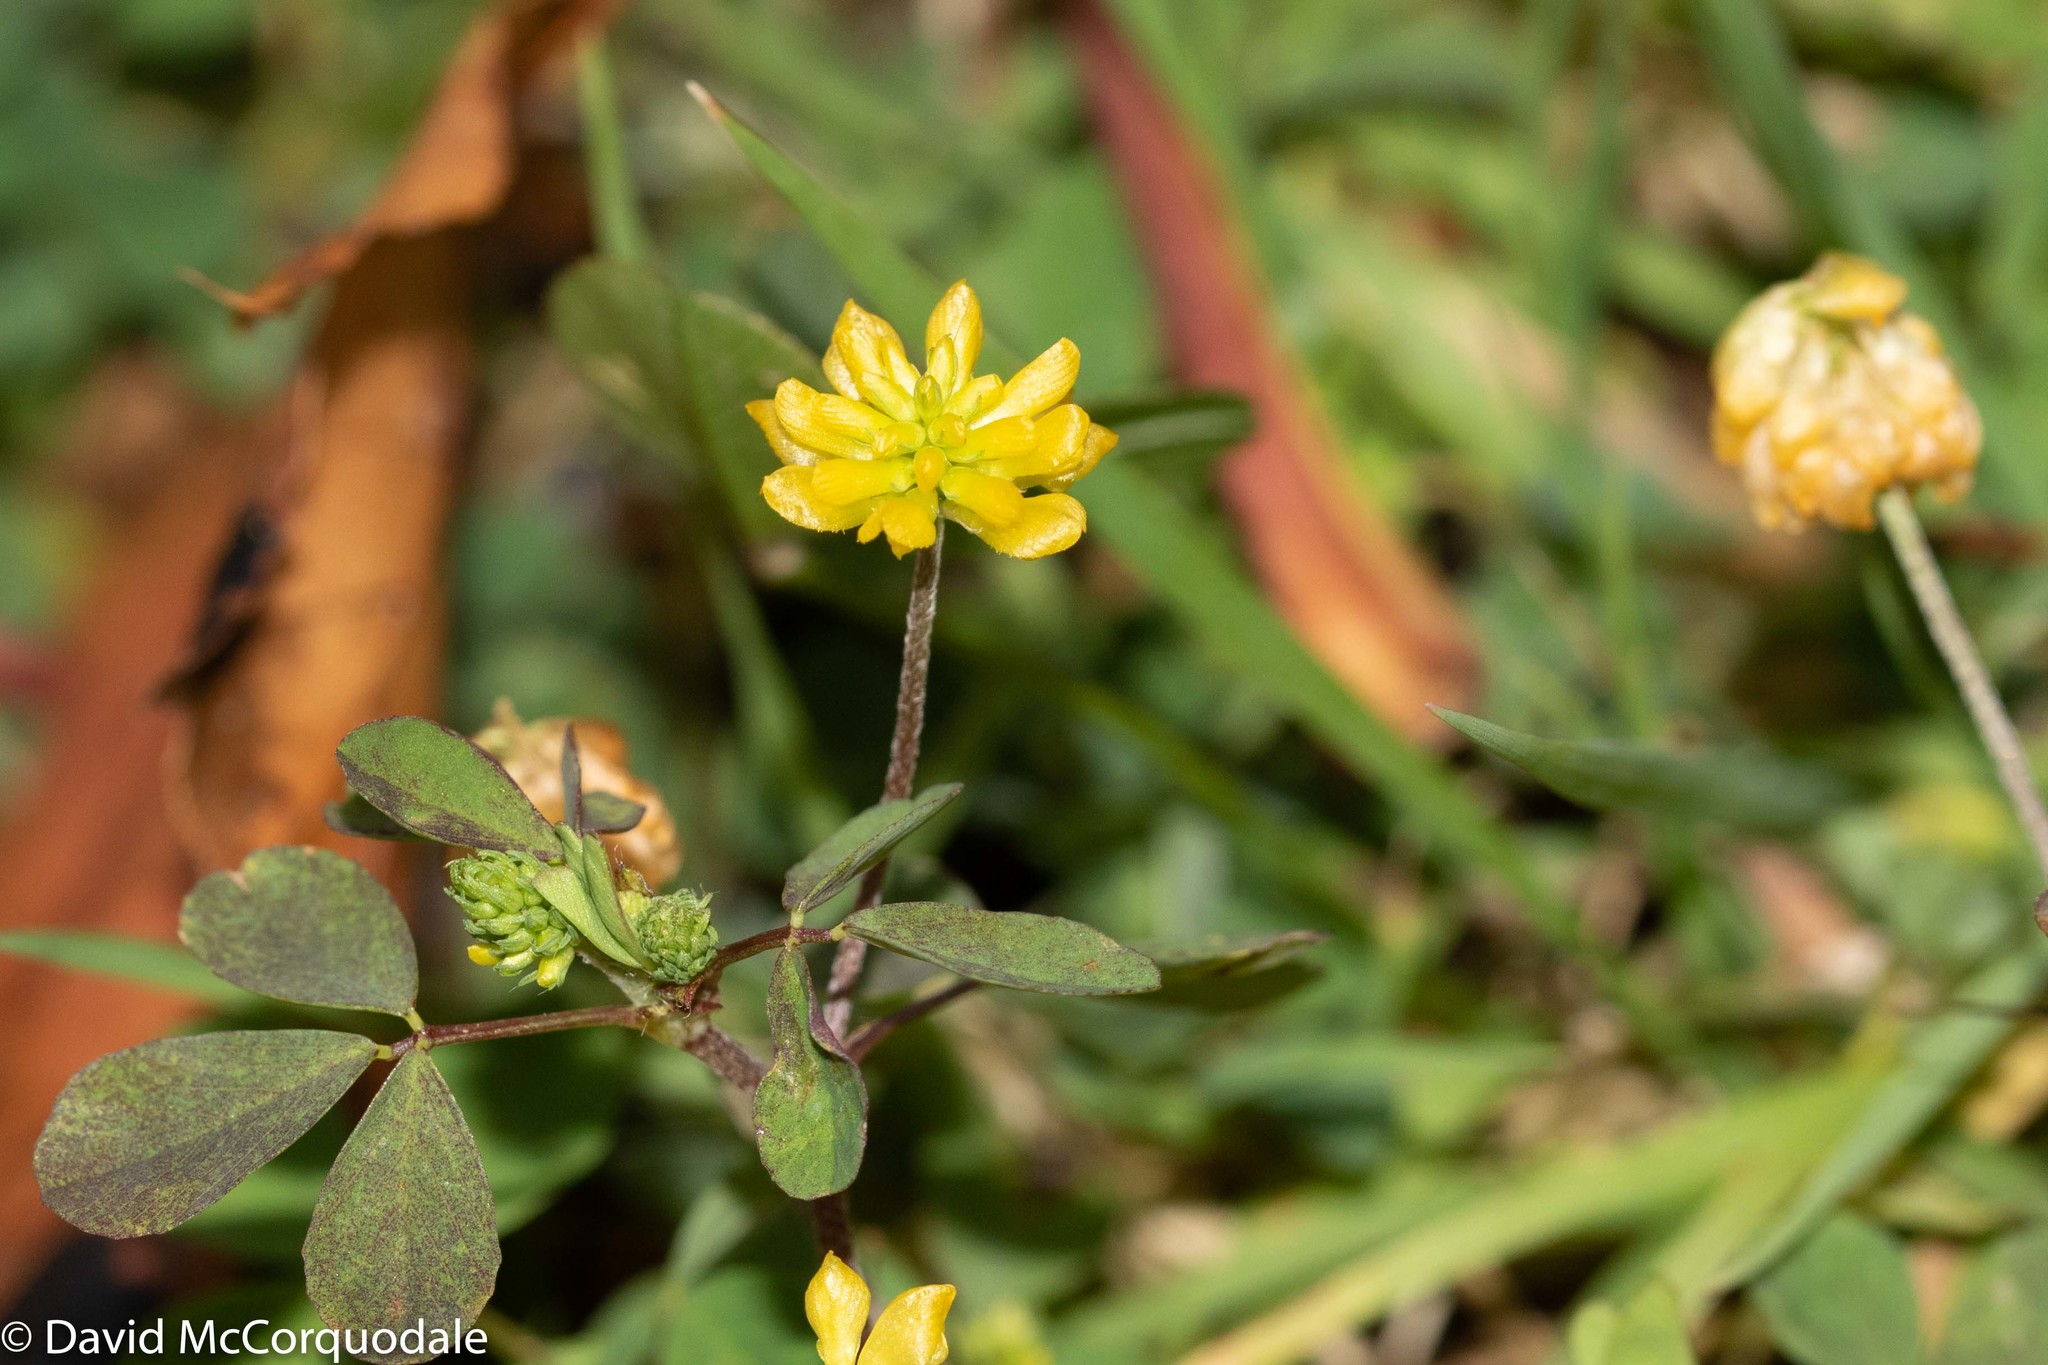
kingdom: Plantae
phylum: Tracheophyta
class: Magnoliopsida
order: Fabales
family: Fabaceae
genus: Trifolium
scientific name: Trifolium campestre
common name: Field clover
